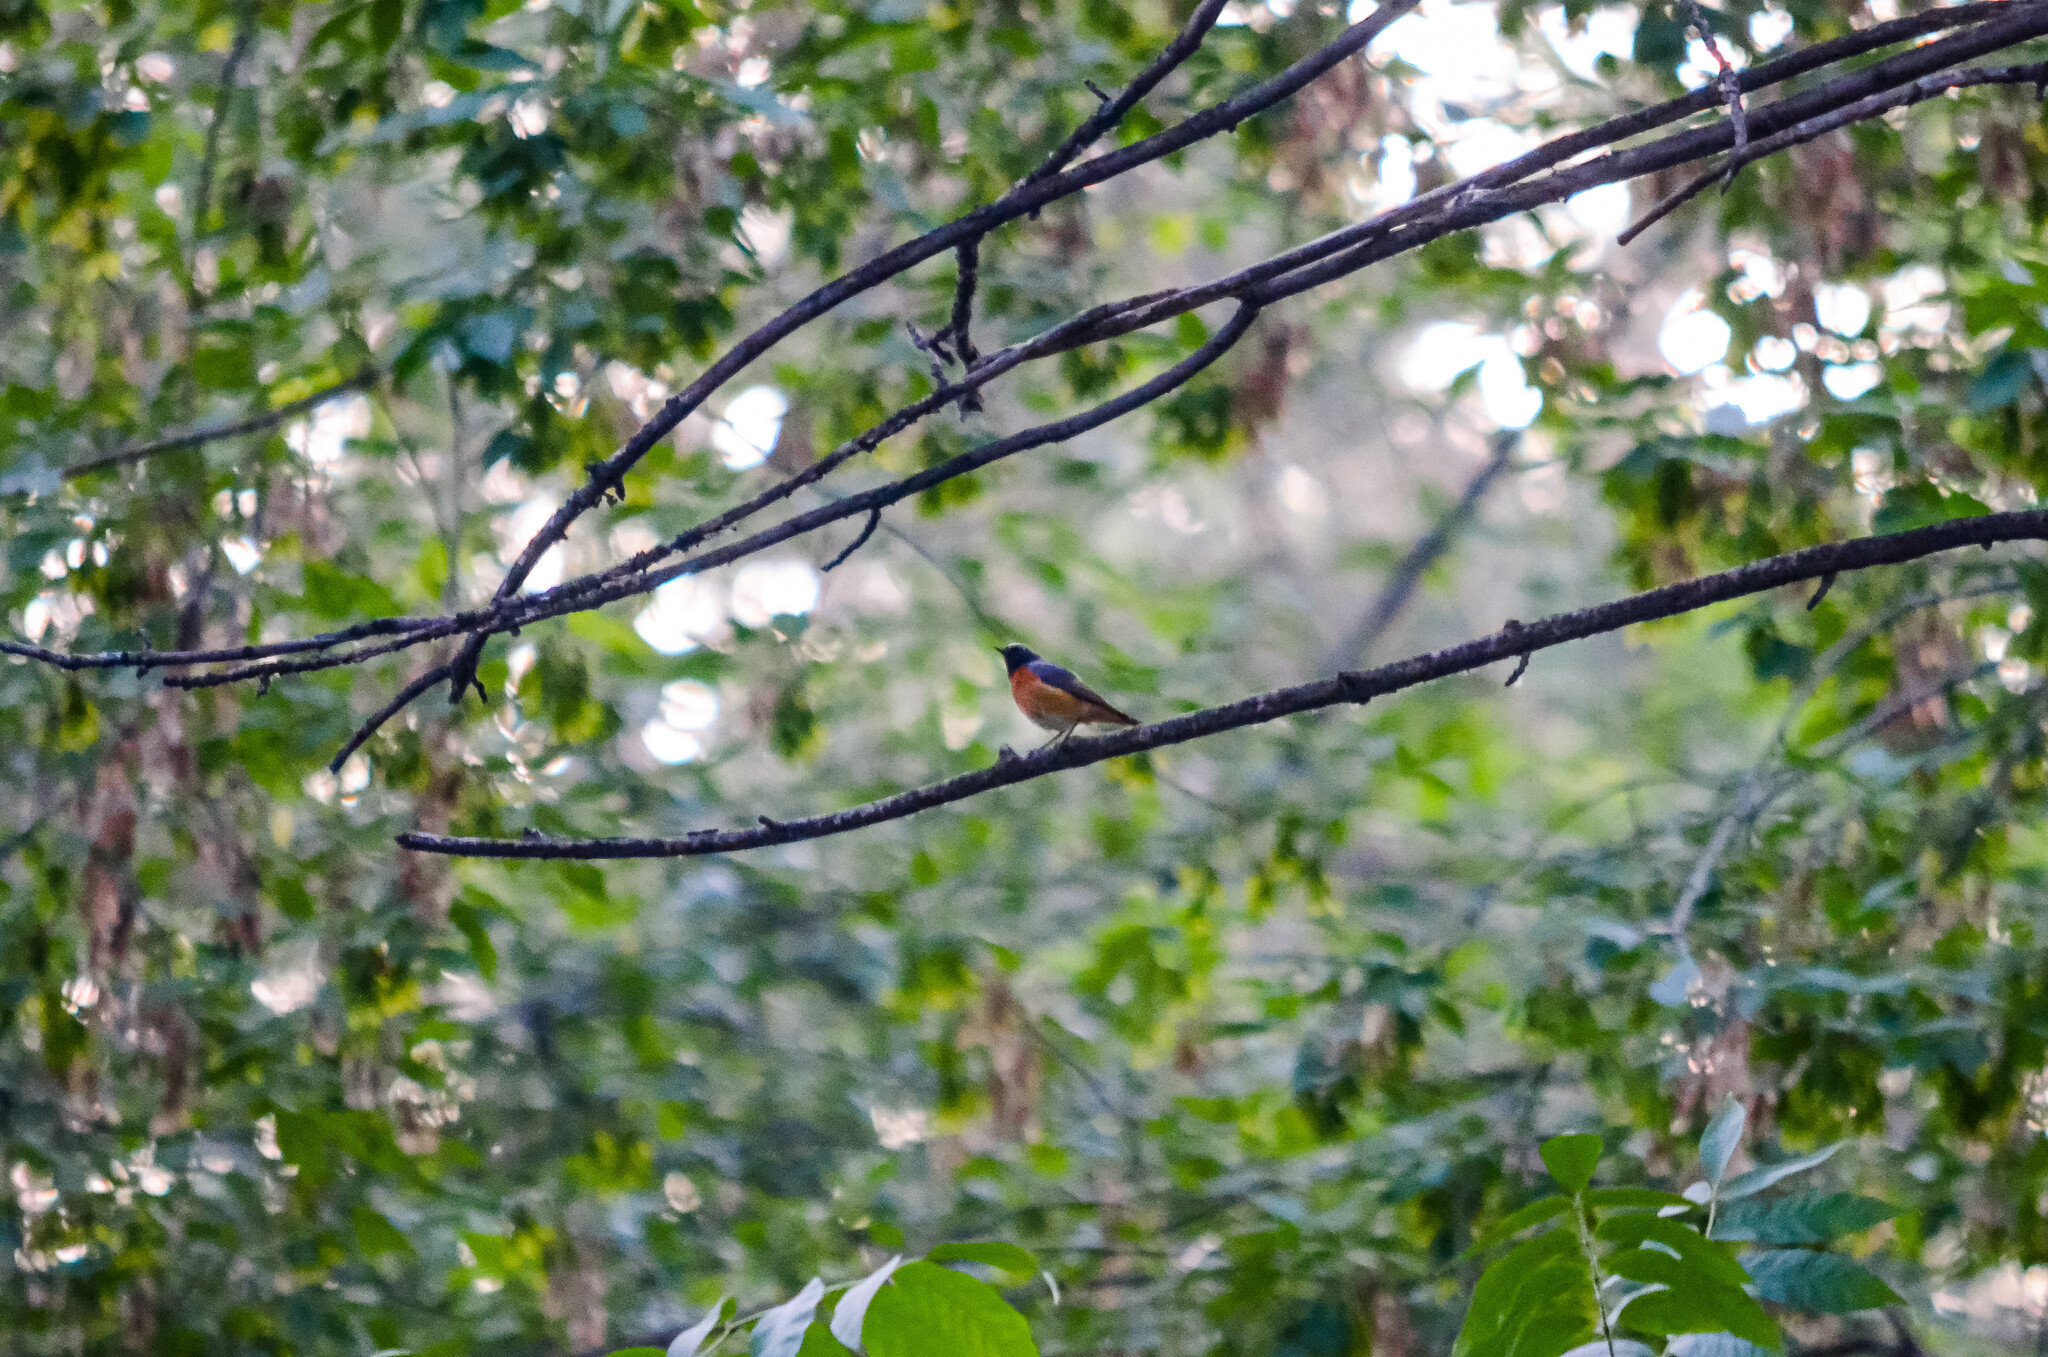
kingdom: Animalia
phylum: Chordata
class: Aves
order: Passeriformes
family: Muscicapidae
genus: Phoenicurus
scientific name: Phoenicurus phoenicurus
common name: Common redstart
